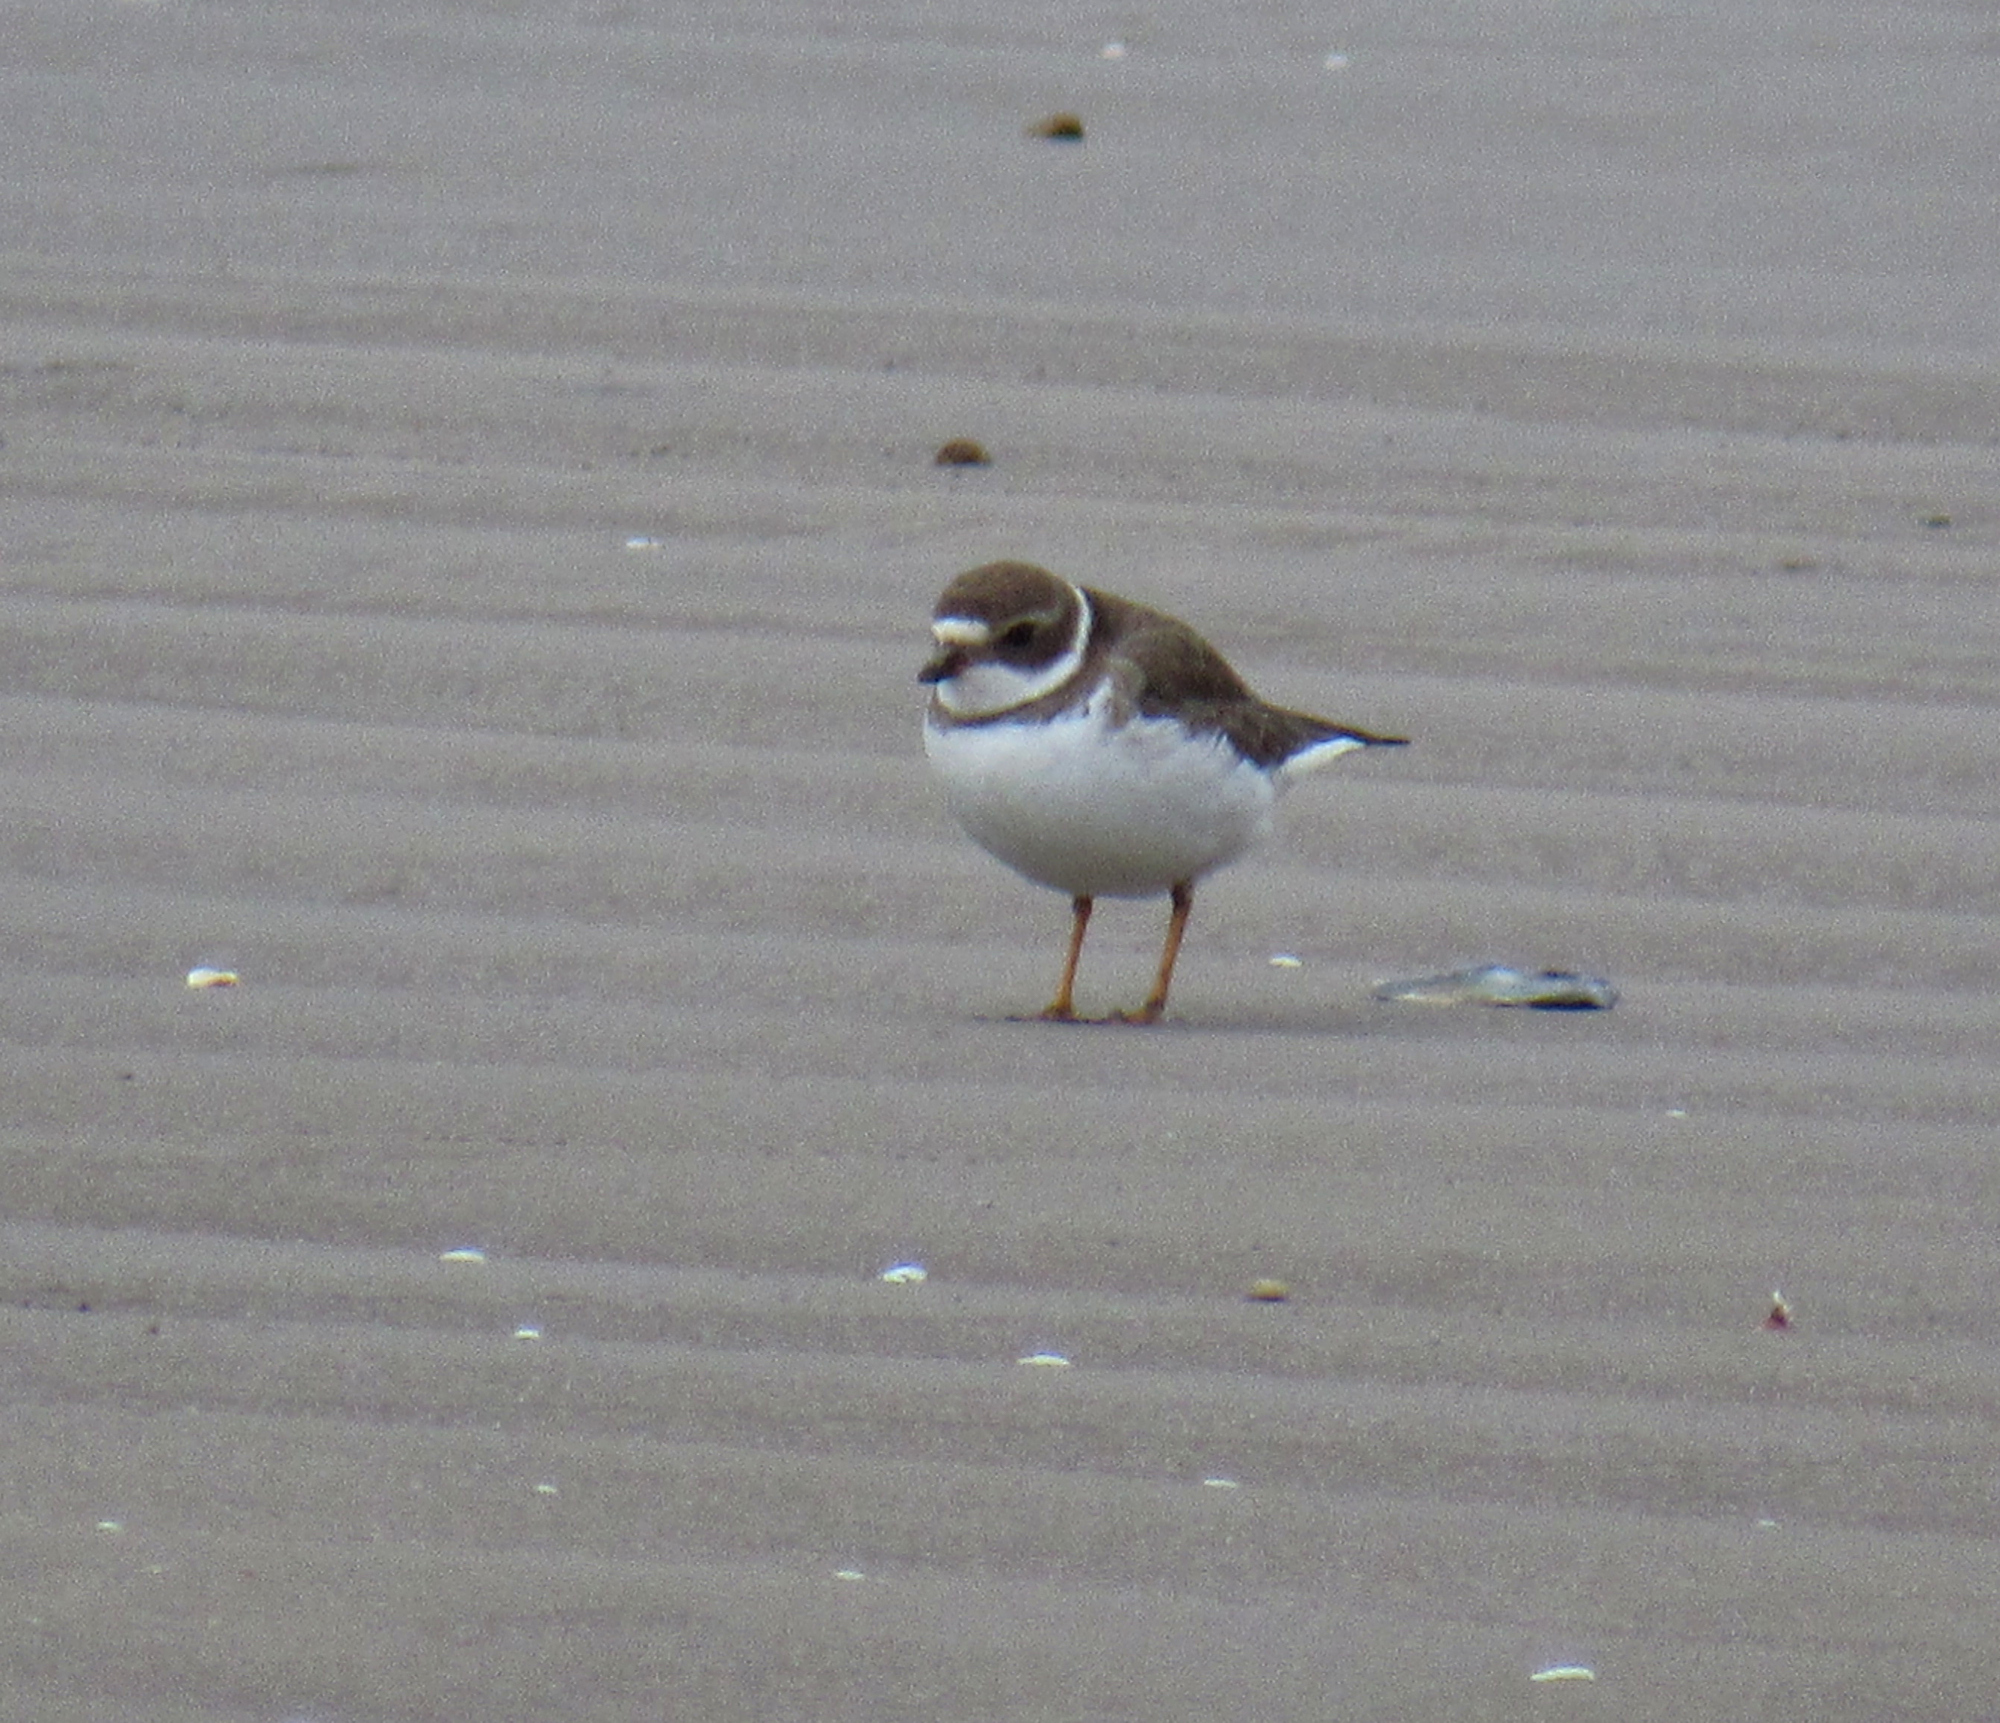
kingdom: Animalia
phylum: Chordata
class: Aves
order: Charadriiformes
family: Charadriidae
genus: Charadrius
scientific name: Charadrius semipalmatus
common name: Semipalmated plover
